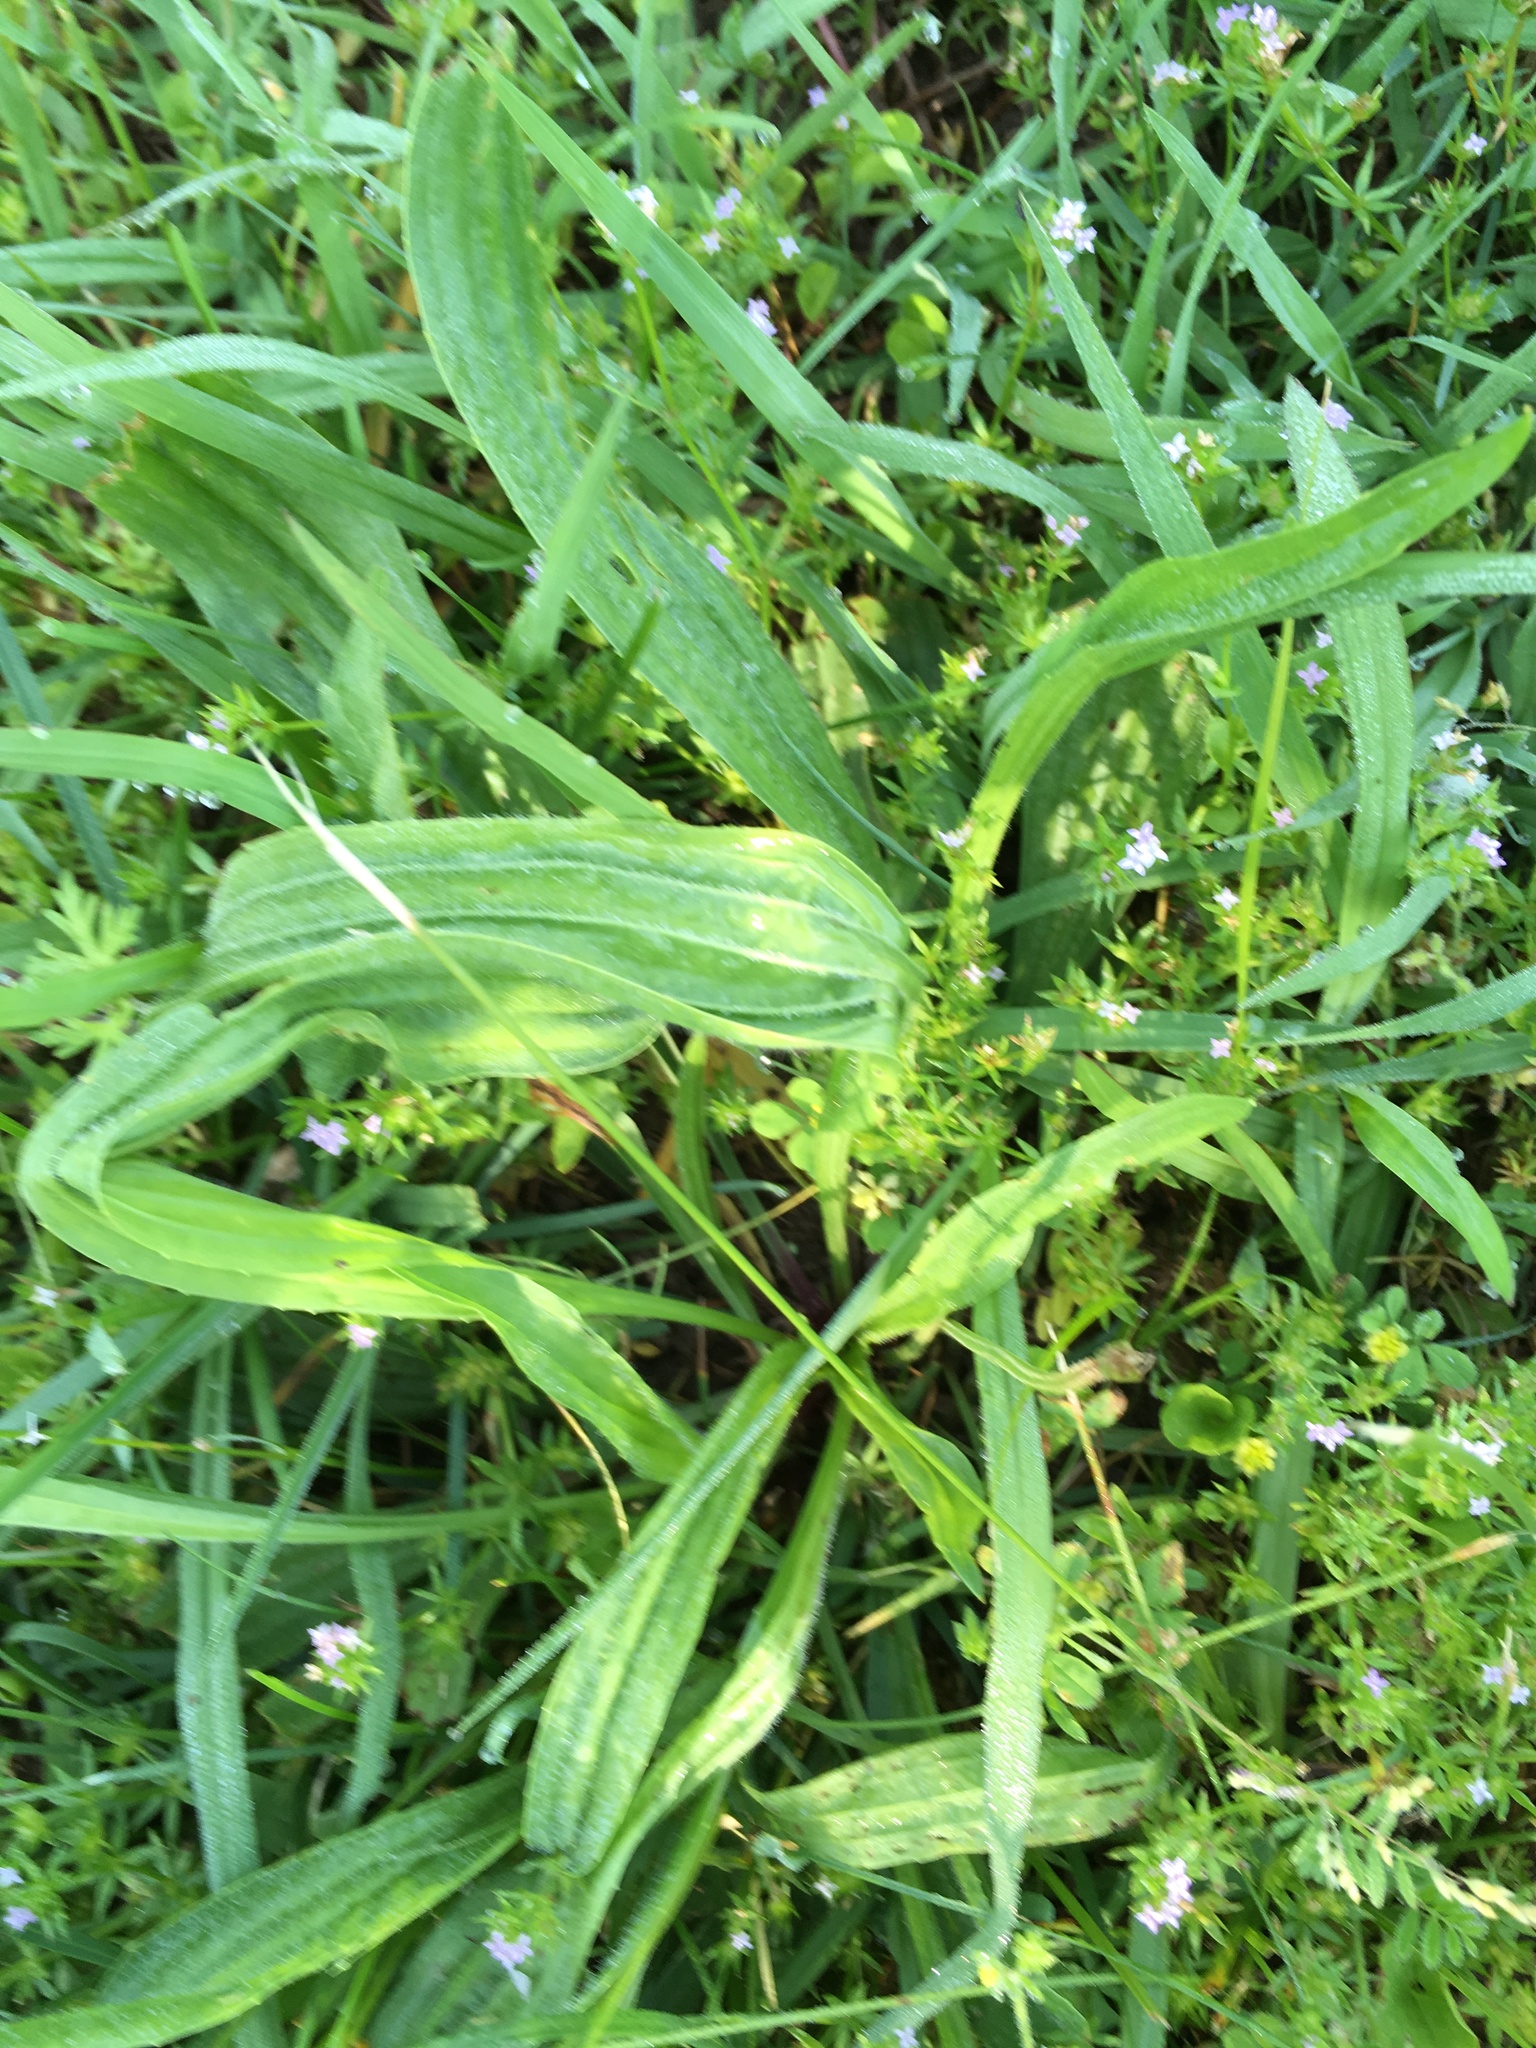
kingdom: Plantae
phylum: Tracheophyta
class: Magnoliopsida
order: Lamiales
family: Plantaginaceae
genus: Plantago
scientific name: Plantago lanceolata
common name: Ribwort plantain
